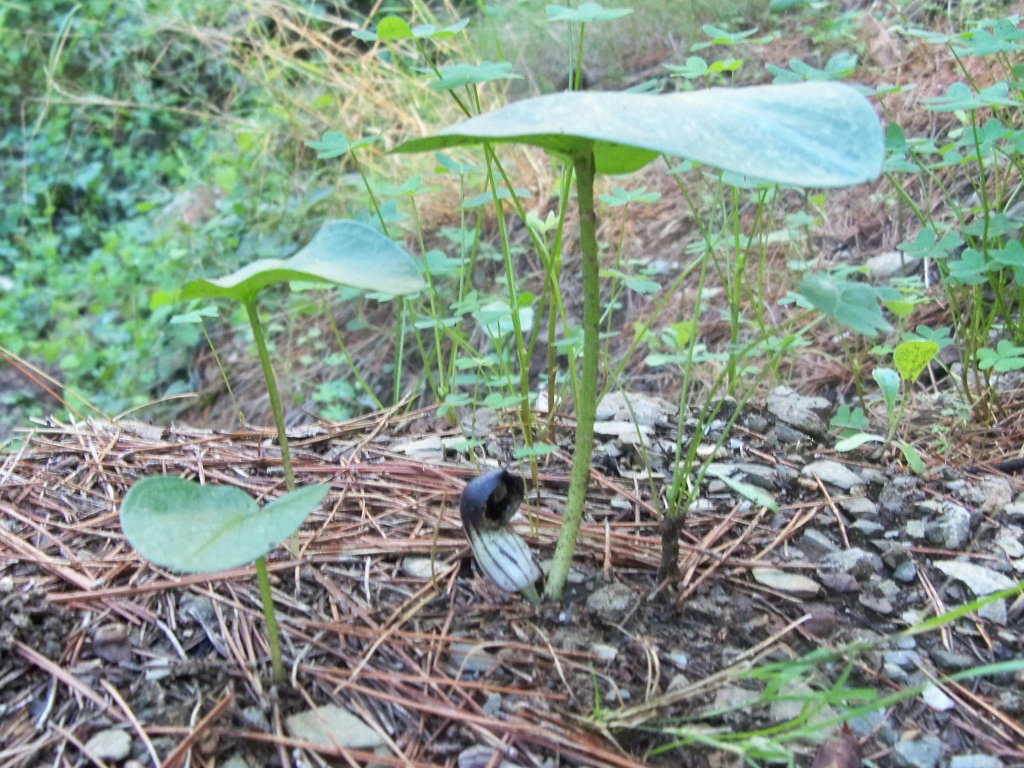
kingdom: Plantae
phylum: Tracheophyta
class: Liliopsida
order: Alismatales
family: Araceae
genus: Arisarum
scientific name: Arisarum vulgare
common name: Common arisarum
